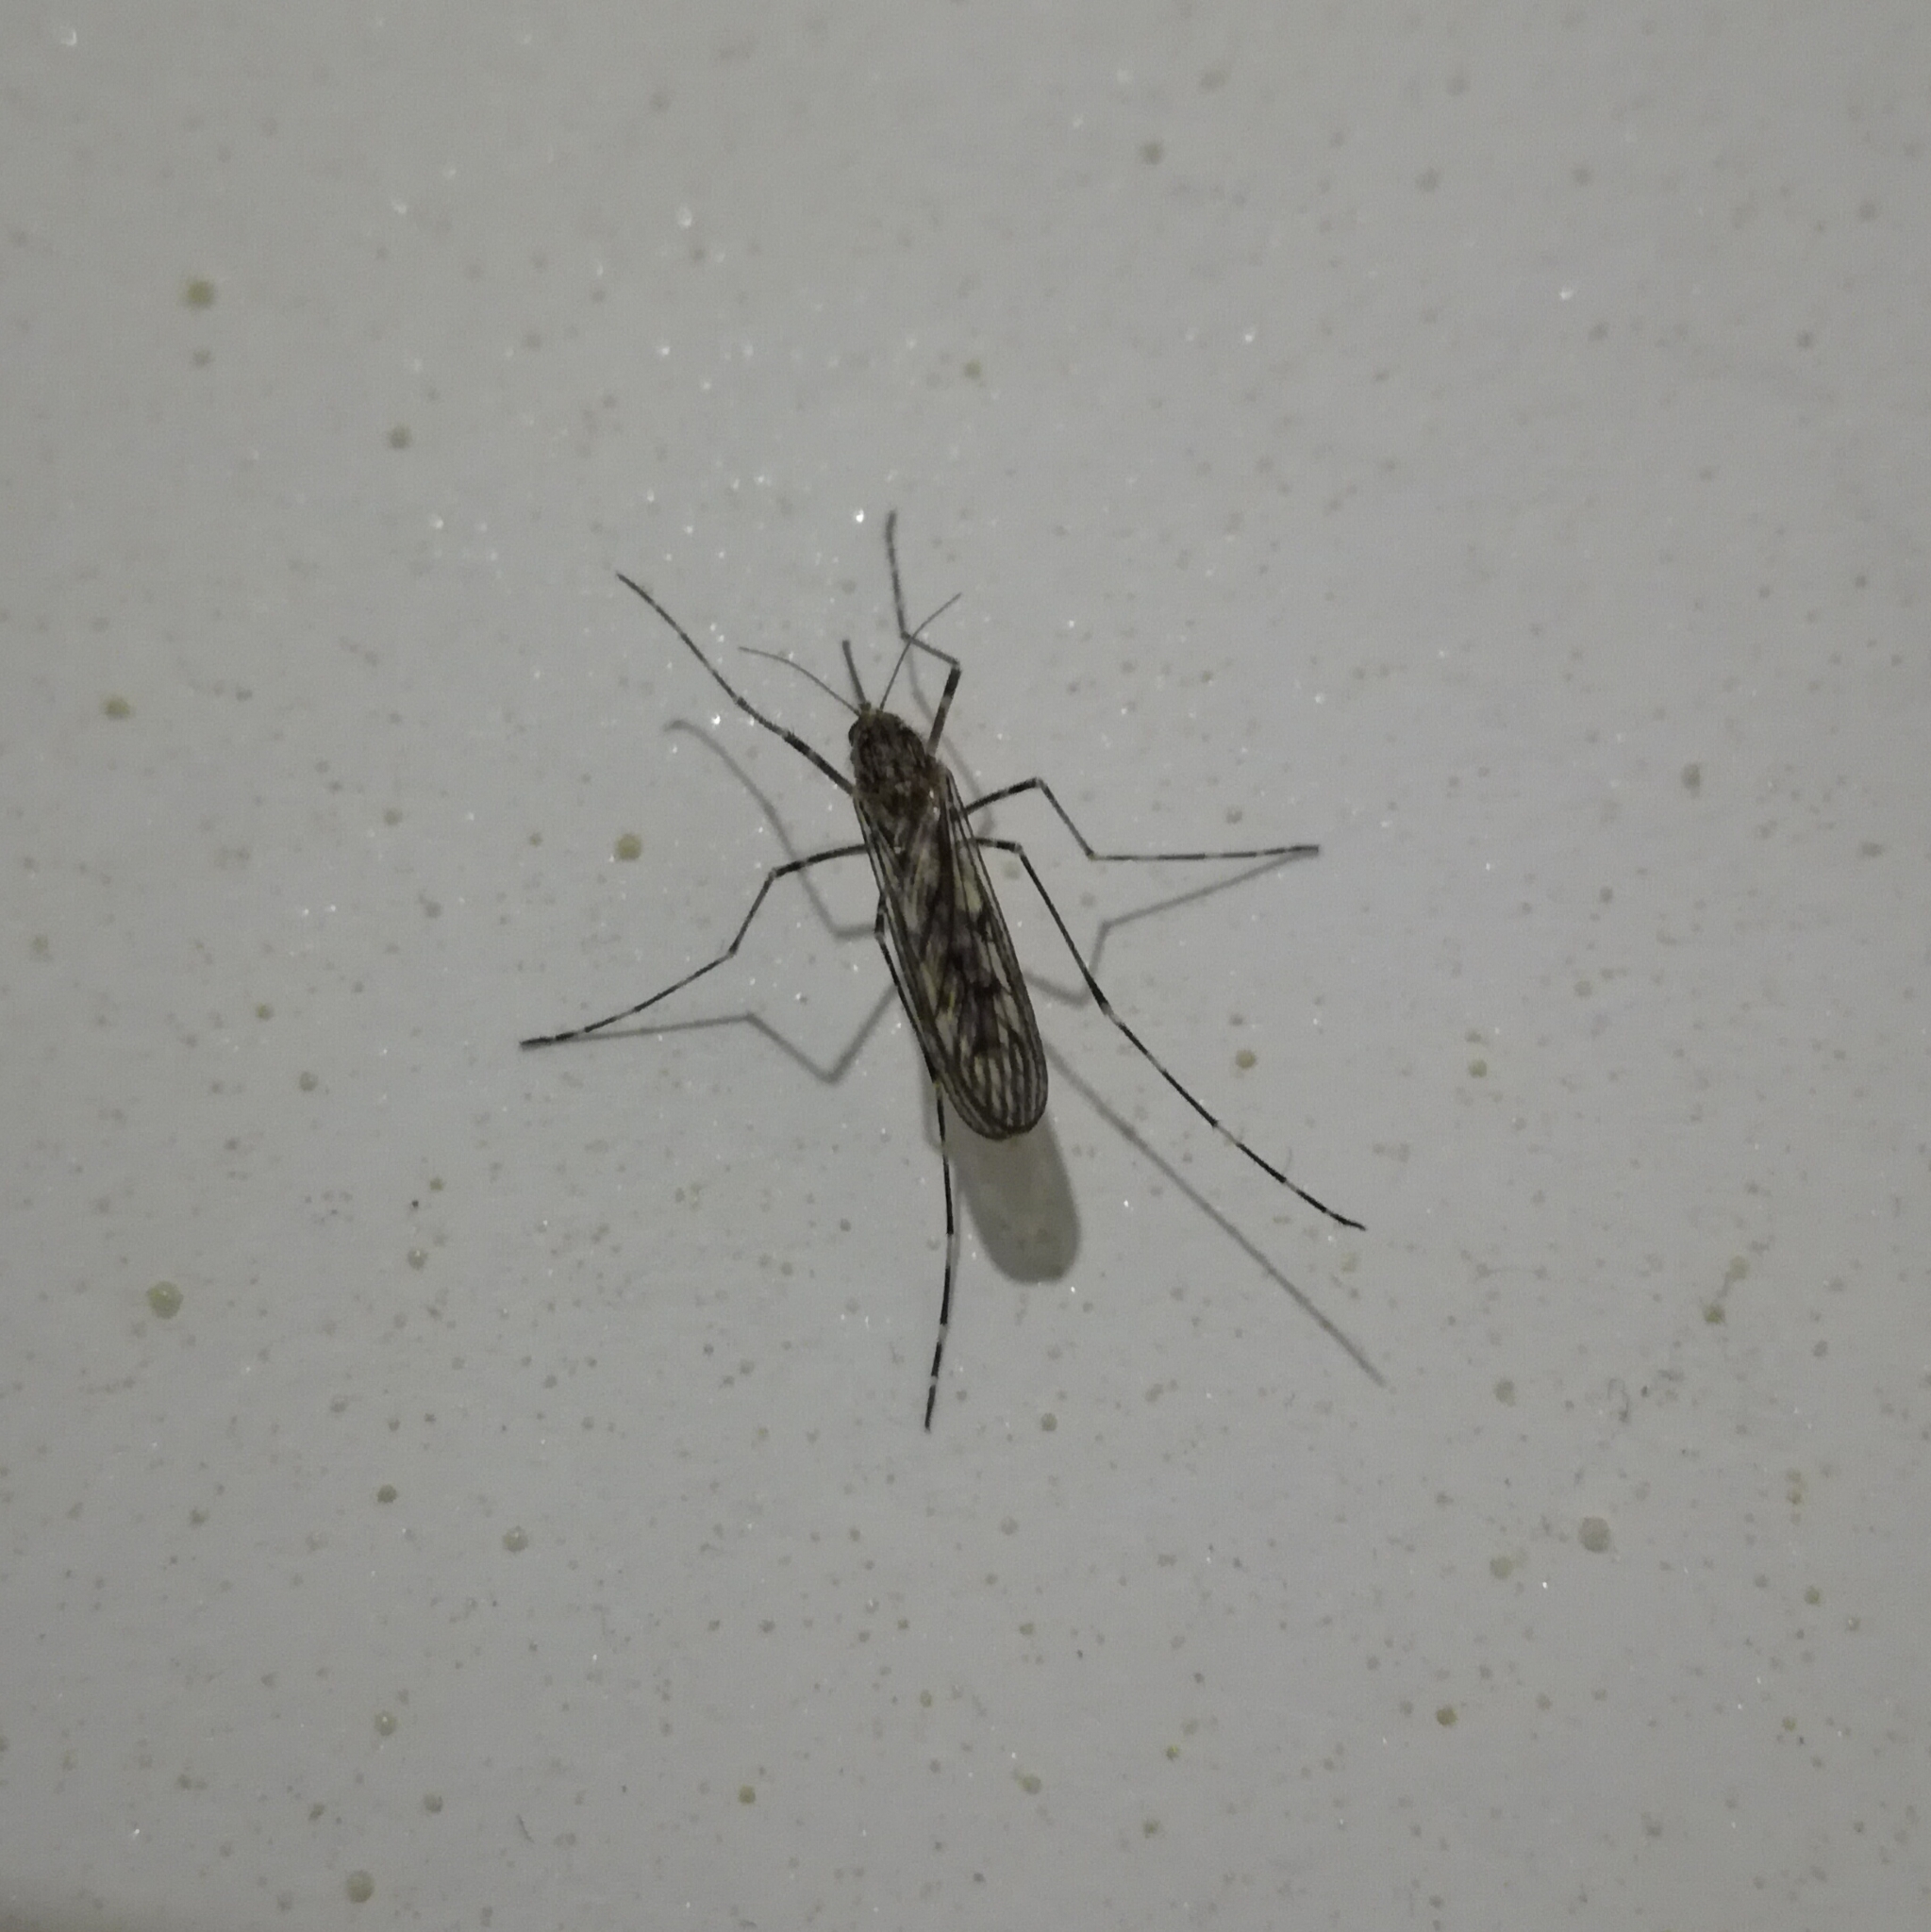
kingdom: Animalia
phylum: Arthropoda
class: Insecta
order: Diptera
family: Culicidae
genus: Culiseta
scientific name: Culiseta annulata
